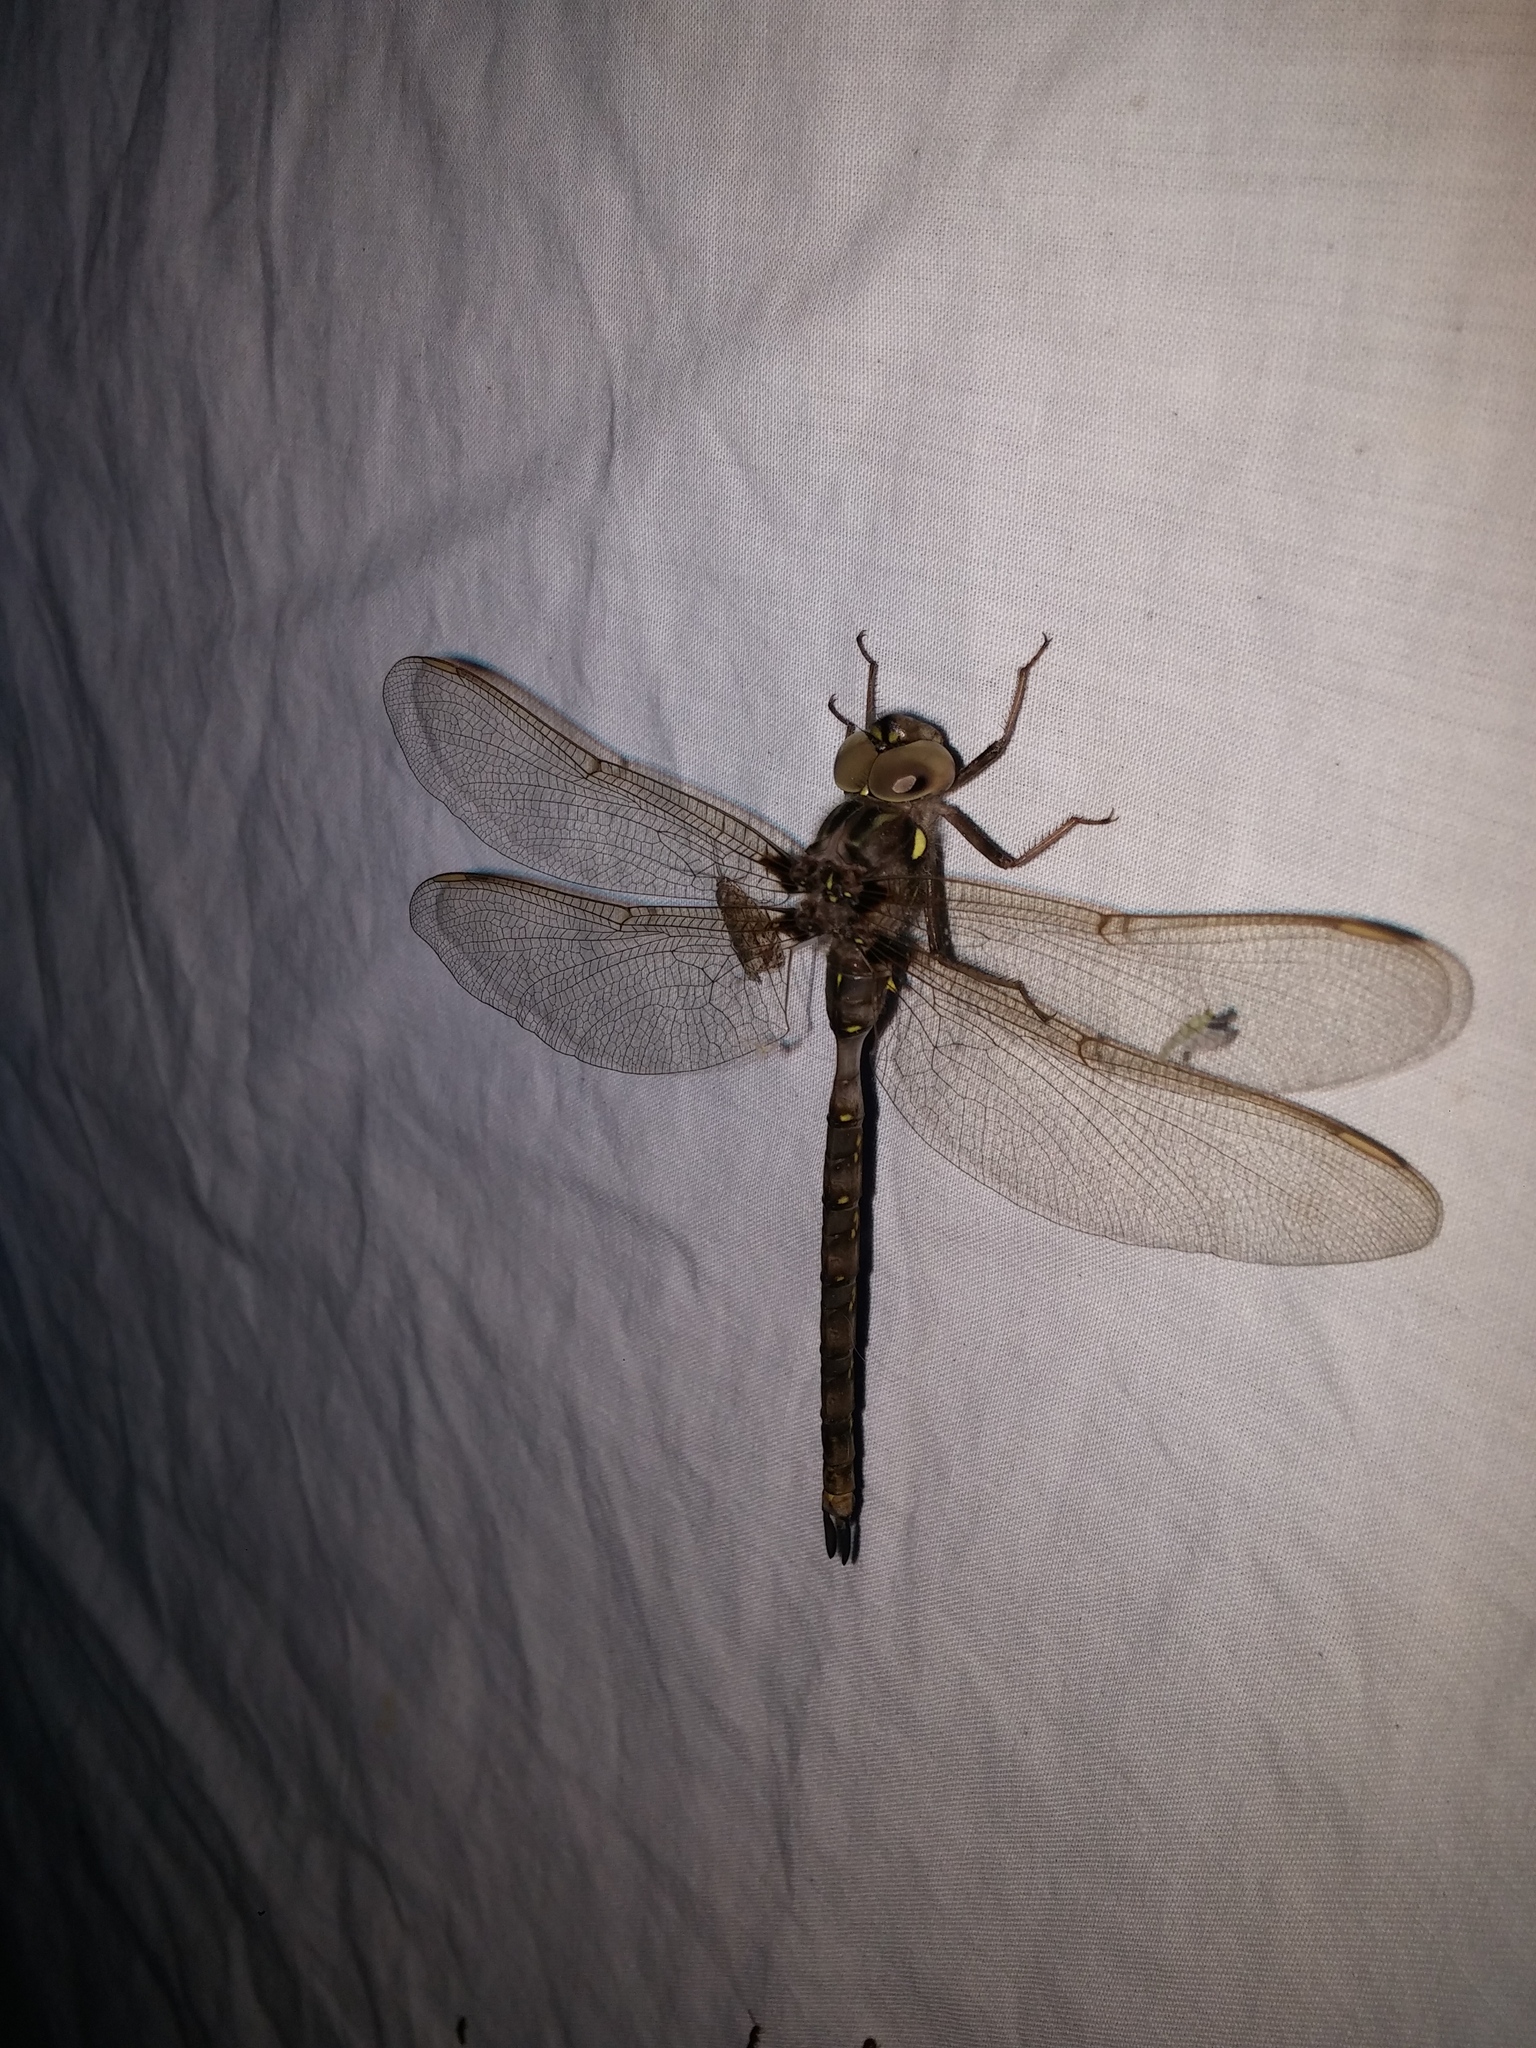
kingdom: Animalia
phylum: Arthropoda
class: Insecta
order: Odonata
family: Aeshnidae
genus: Boyeria
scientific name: Boyeria vinosa
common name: Fawn darner
